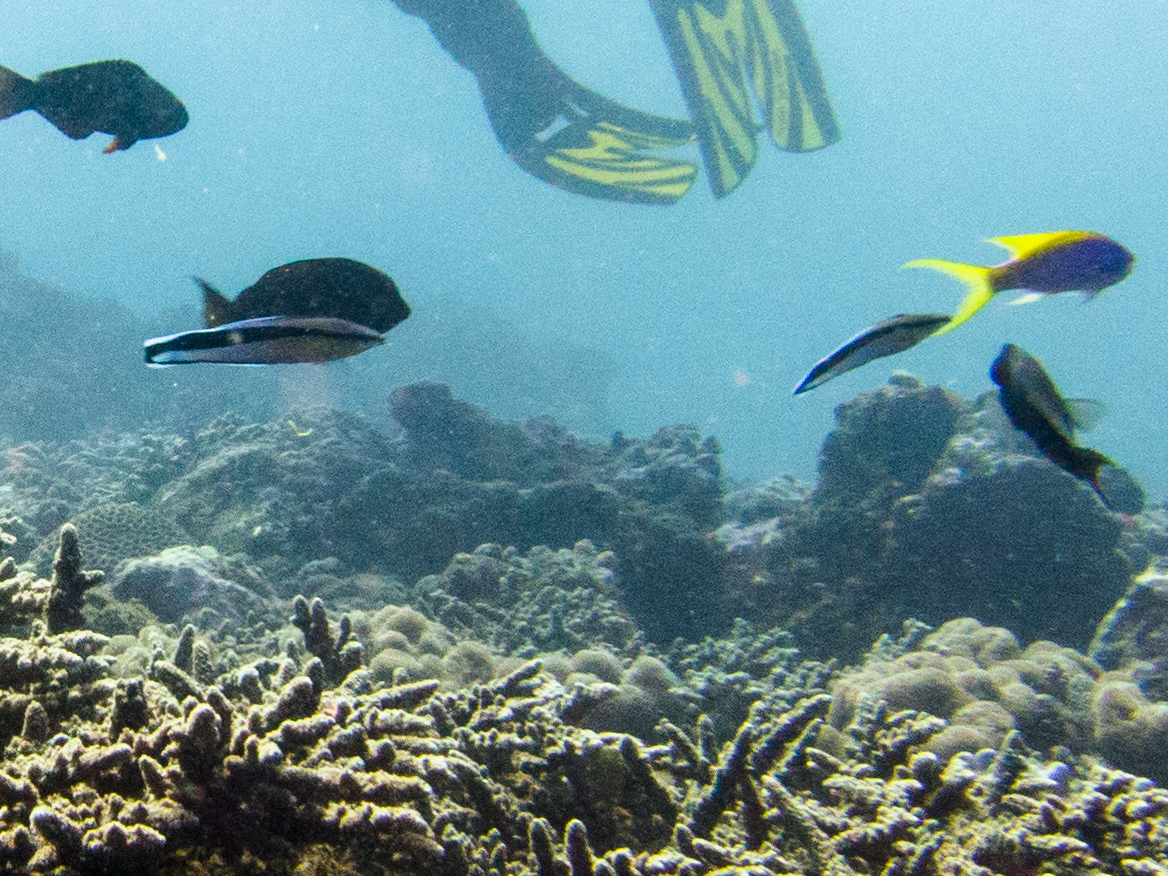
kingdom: Animalia
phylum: Chordata
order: Perciformes
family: Labridae
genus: Labroides
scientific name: Labroides dimidiatus
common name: Blue diesel wrasse
